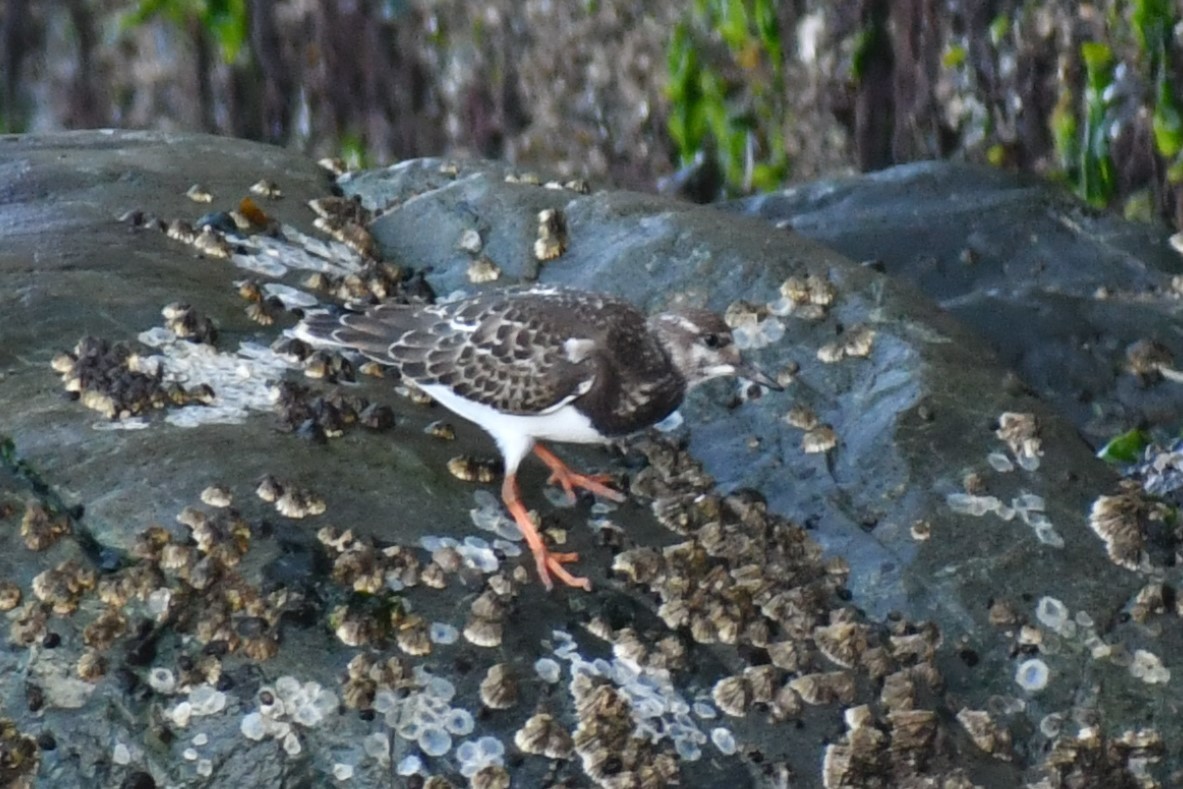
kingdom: Animalia
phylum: Chordata
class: Aves
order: Charadriiformes
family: Scolopacidae
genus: Arenaria
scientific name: Arenaria interpres
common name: Ruddy turnstone
